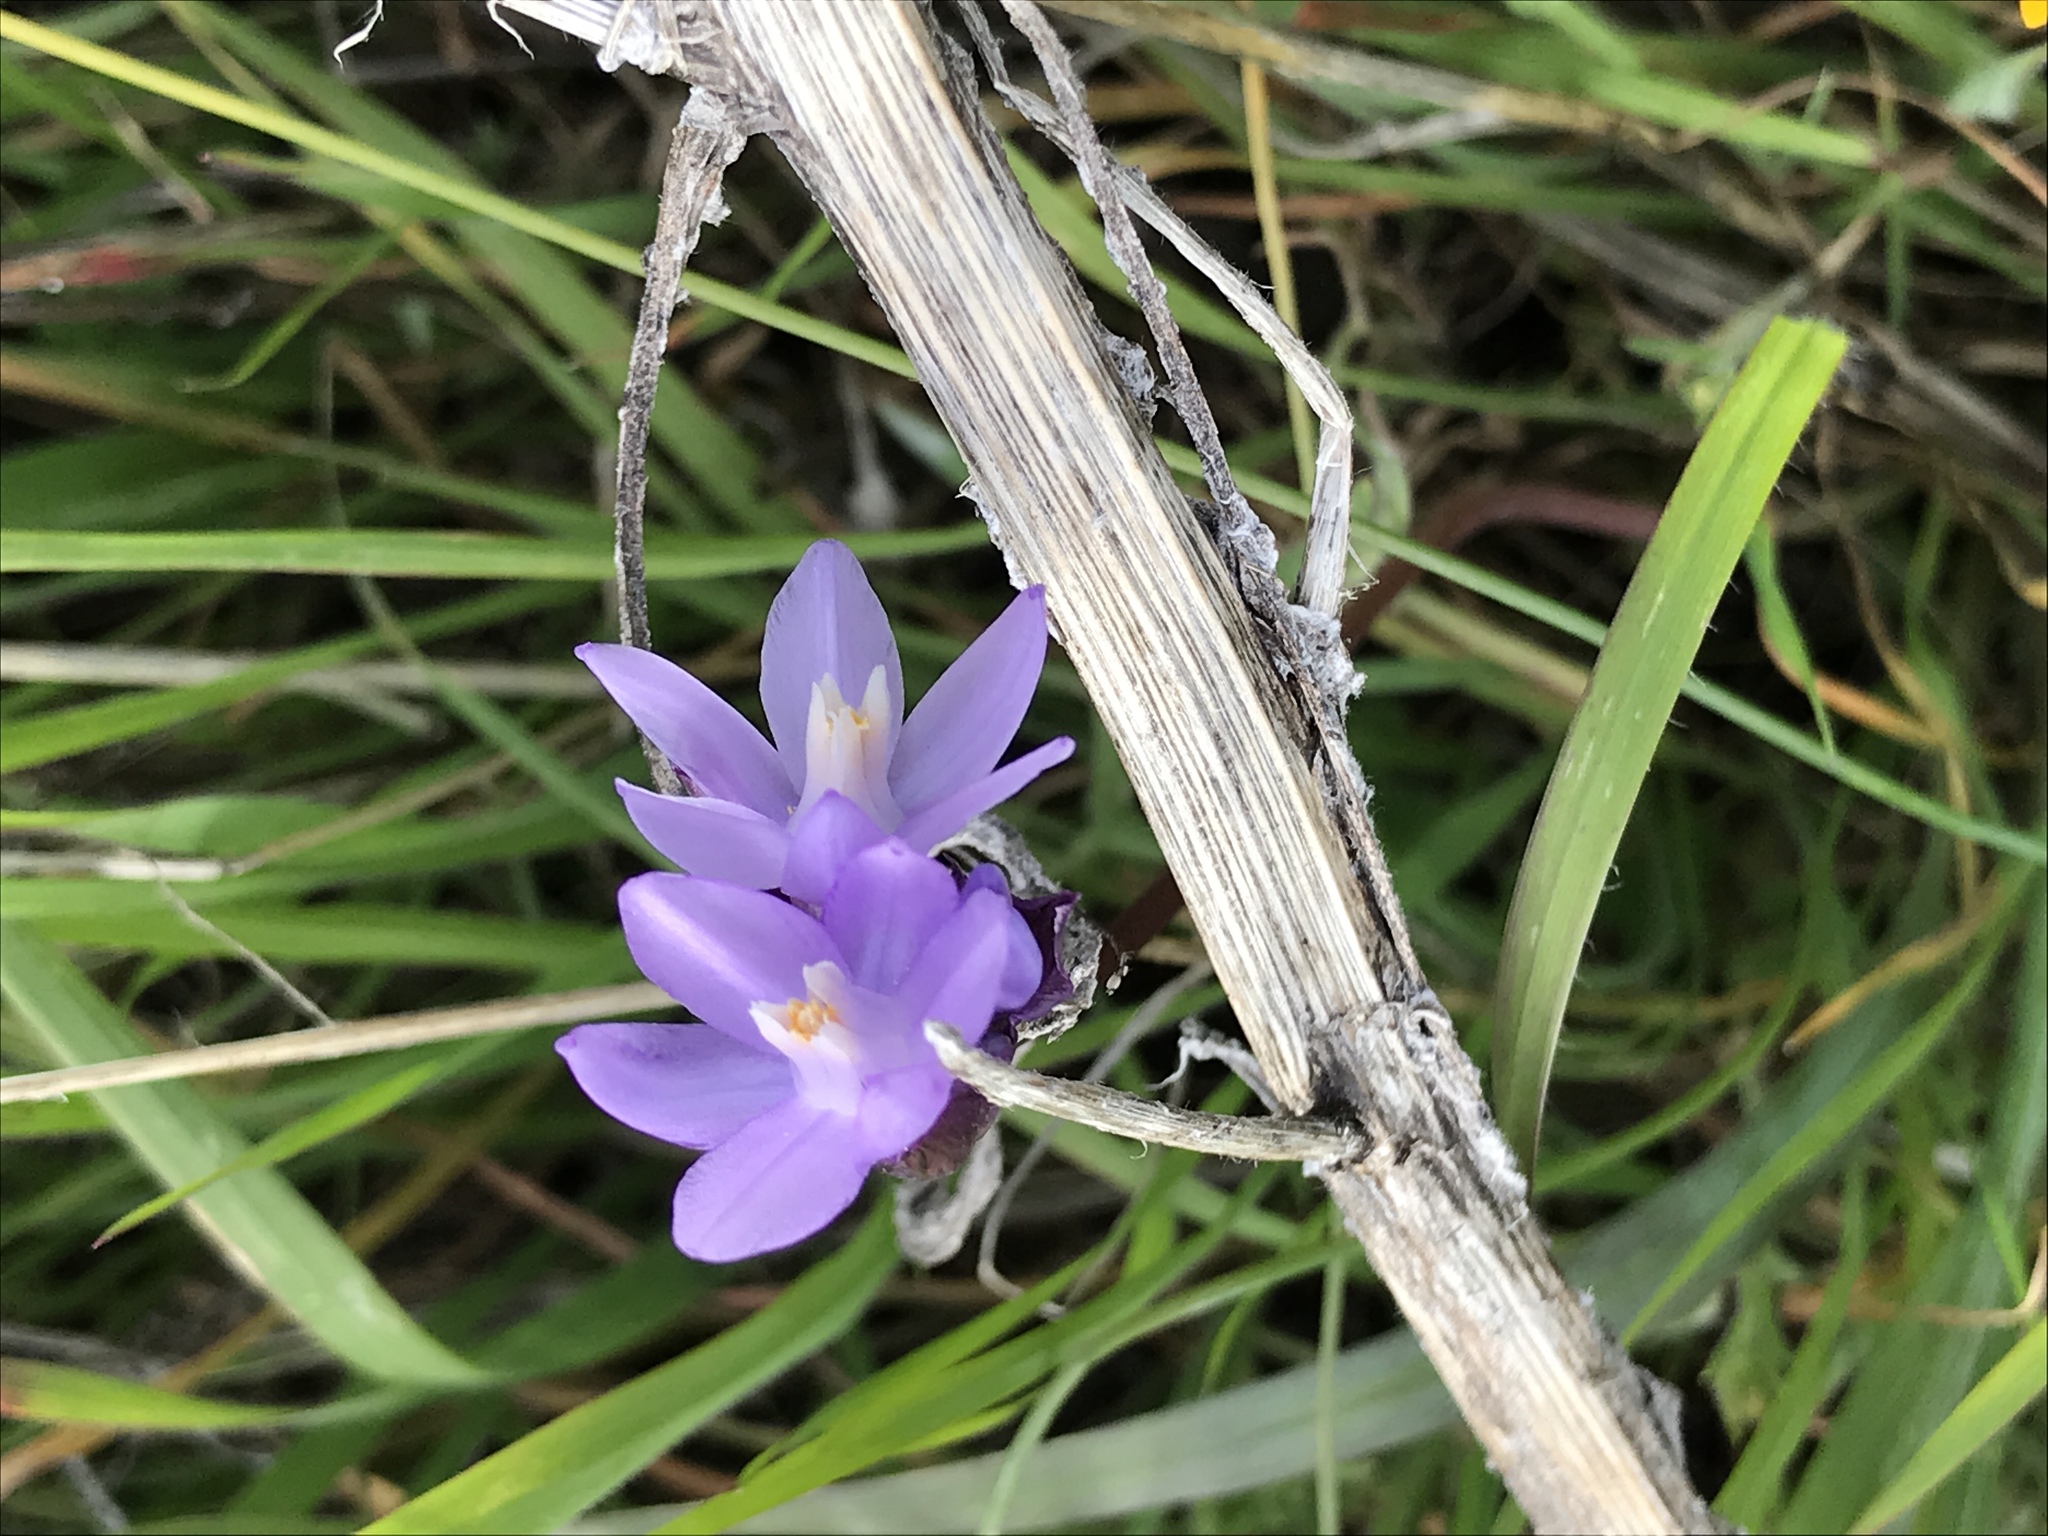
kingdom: Plantae
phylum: Tracheophyta
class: Liliopsida
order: Asparagales
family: Asparagaceae
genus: Dipterostemon
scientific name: Dipterostemon capitatus
